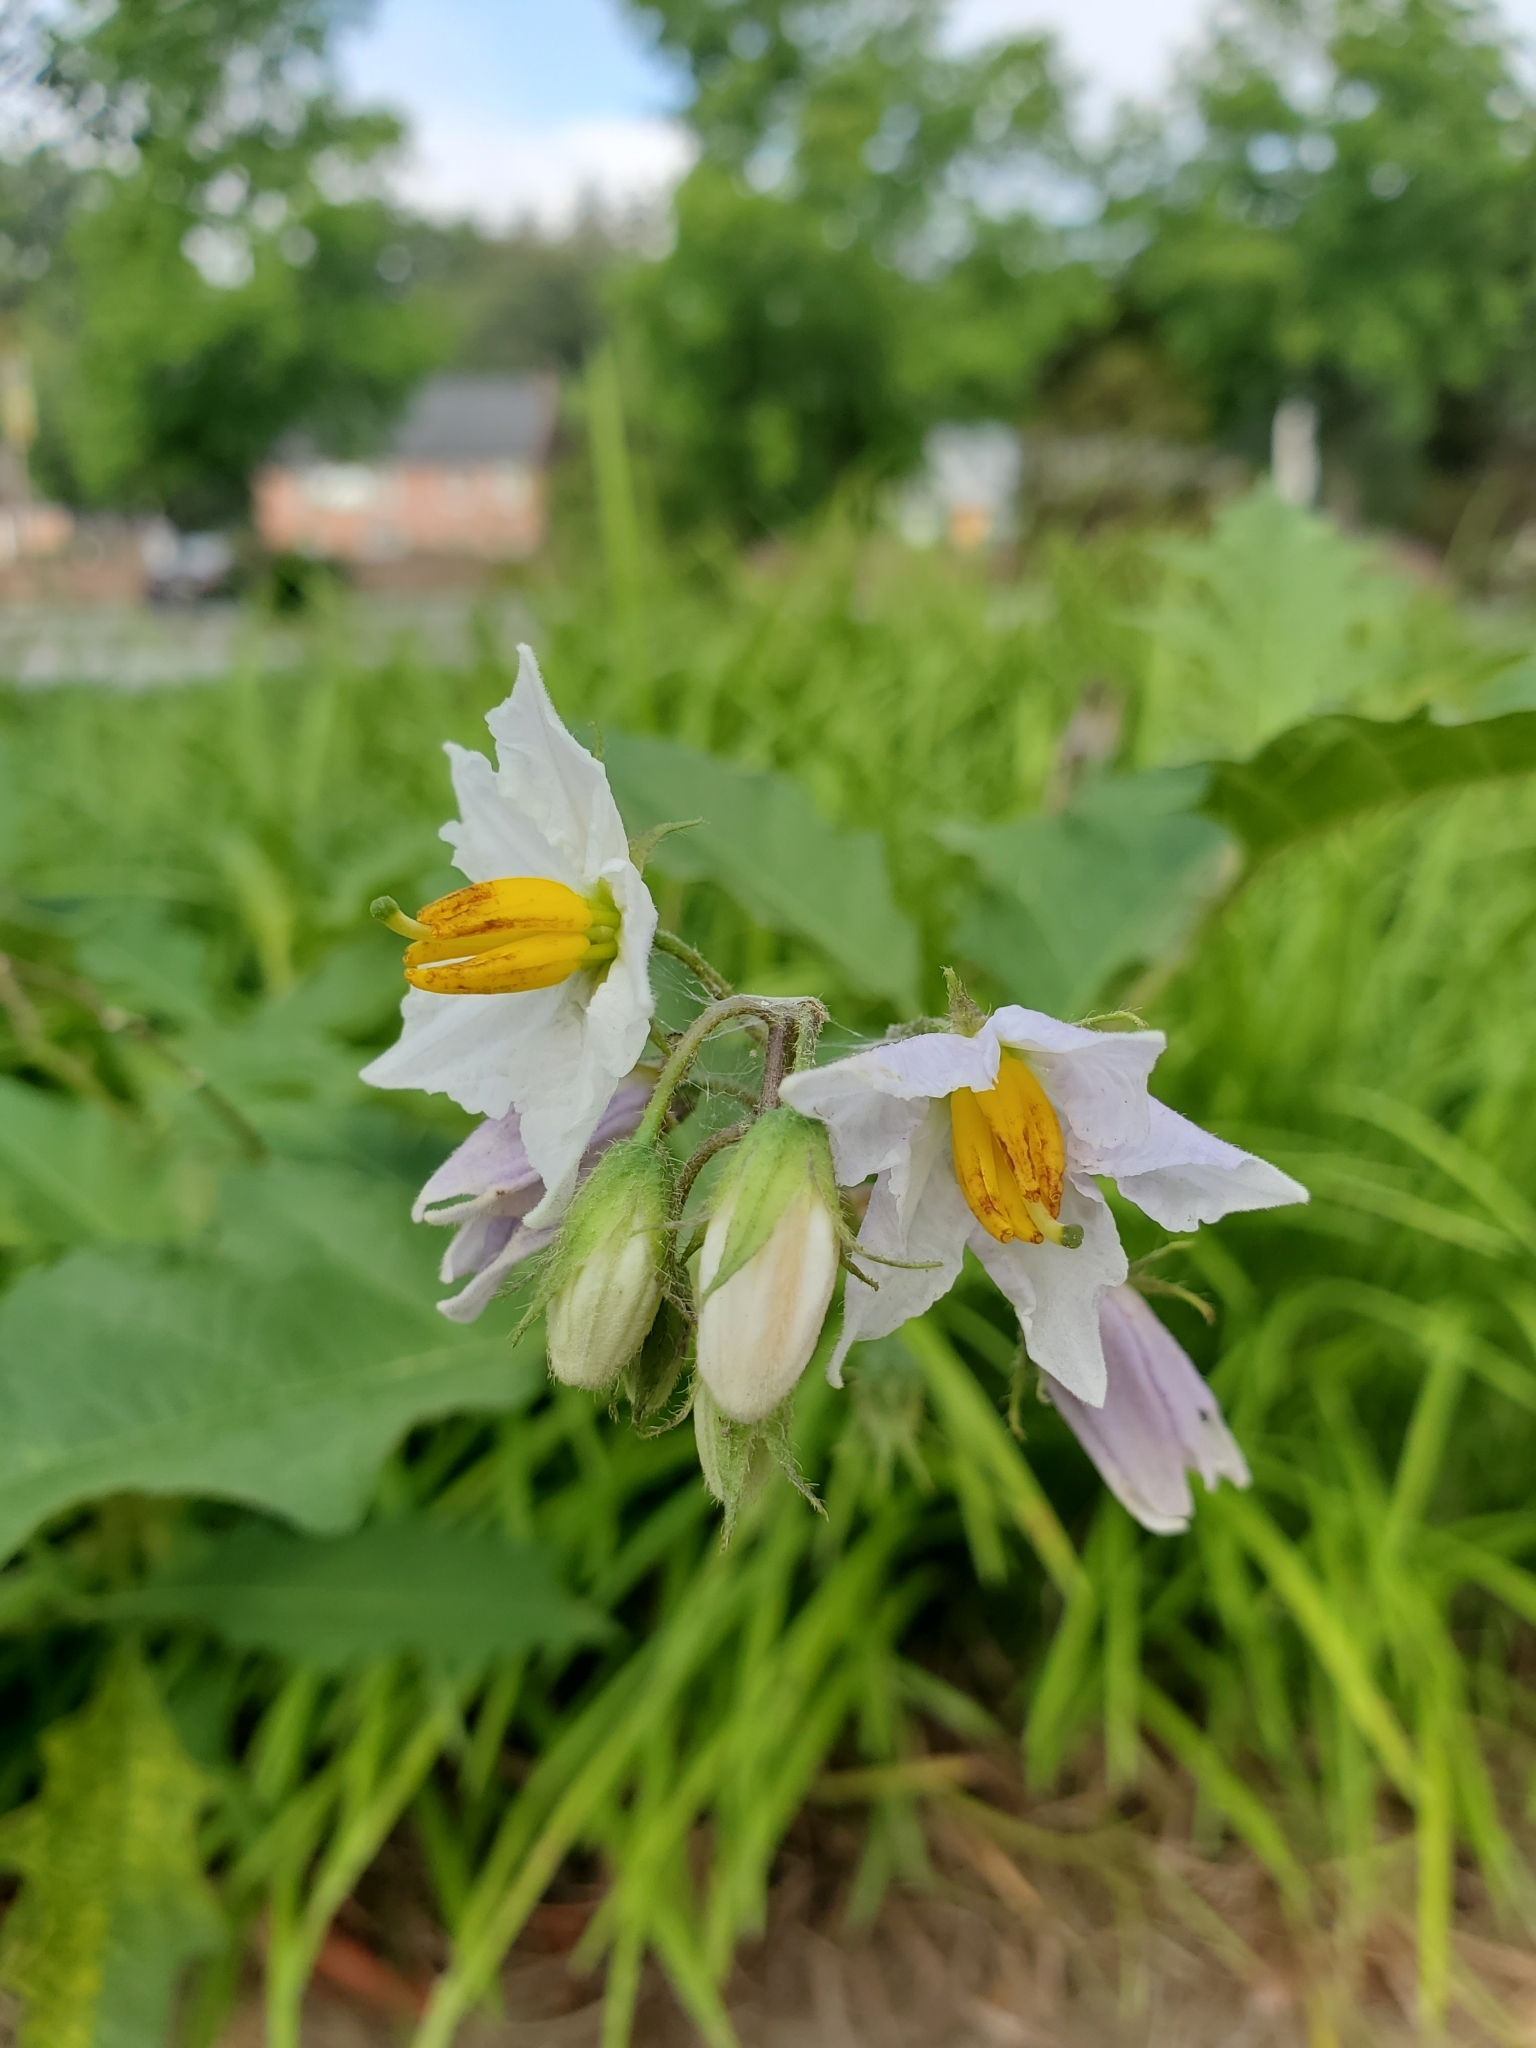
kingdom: Plantae
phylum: Tracheophyta
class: Magnoliopsida
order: Solanales
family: Solanaceae
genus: Solanum
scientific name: Solanum carolinense
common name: Horse-nettle
